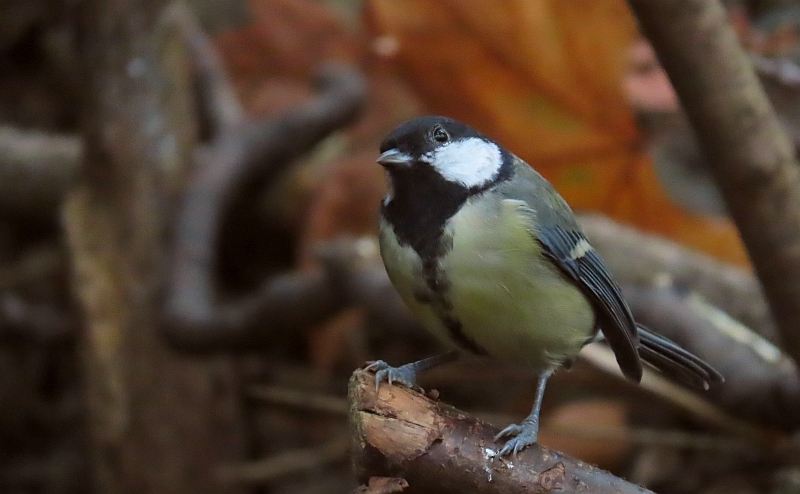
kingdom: Animalia
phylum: Chordata
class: Aves
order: Passeriformes
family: Paridae
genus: Parus
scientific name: Parus major
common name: Great tit
